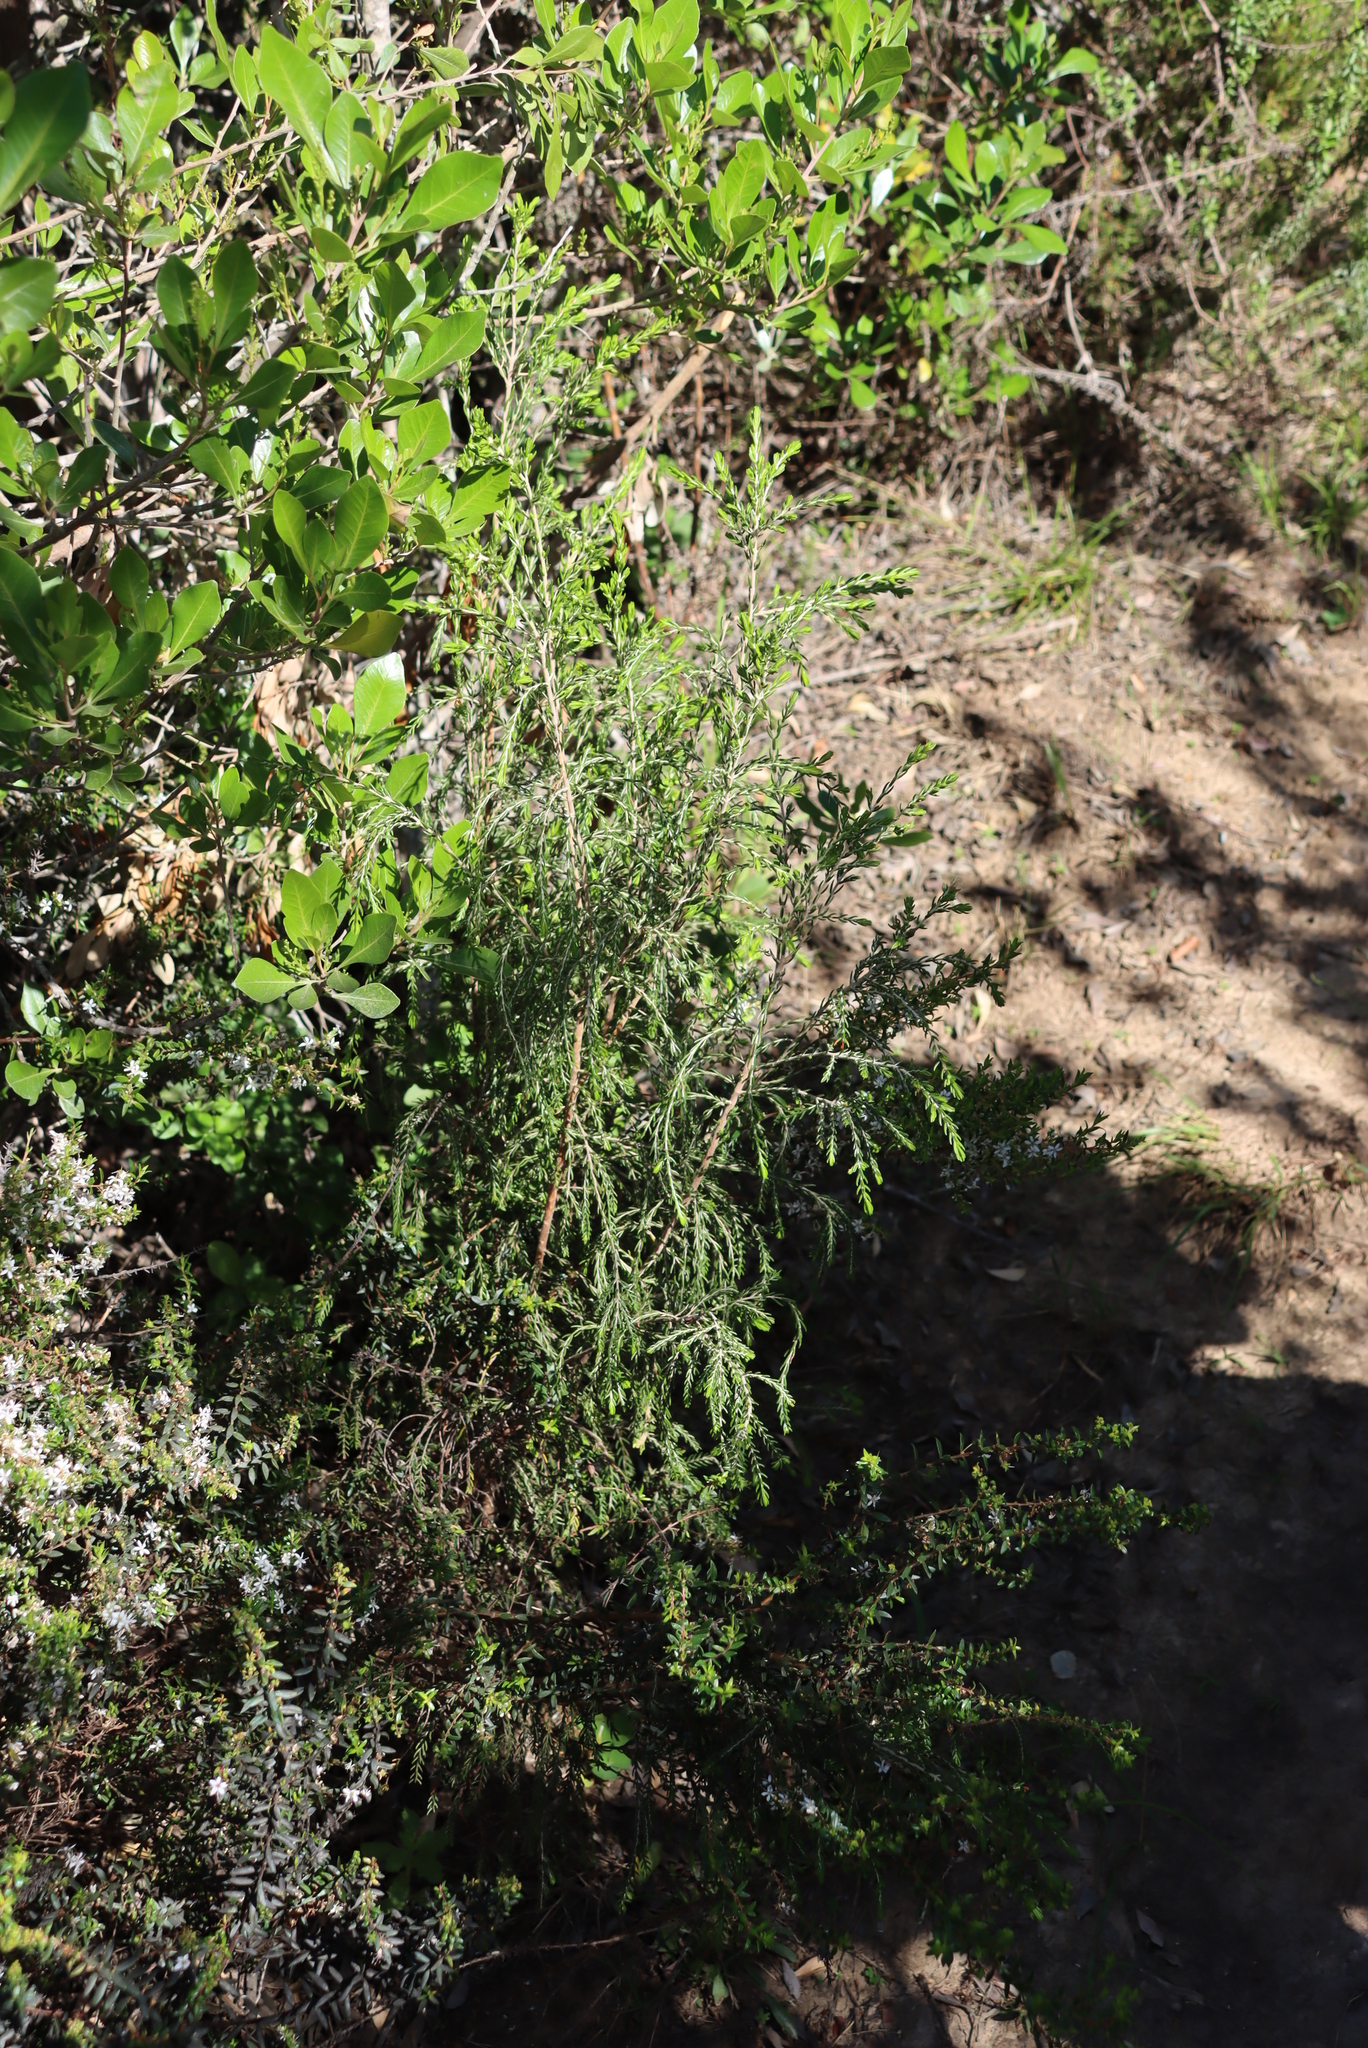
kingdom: Plantae
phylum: Tracheophyta
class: Magnoliopsida
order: Malvales
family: Thymelaeaceae
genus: Passerina
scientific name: Passerina falcifolia
